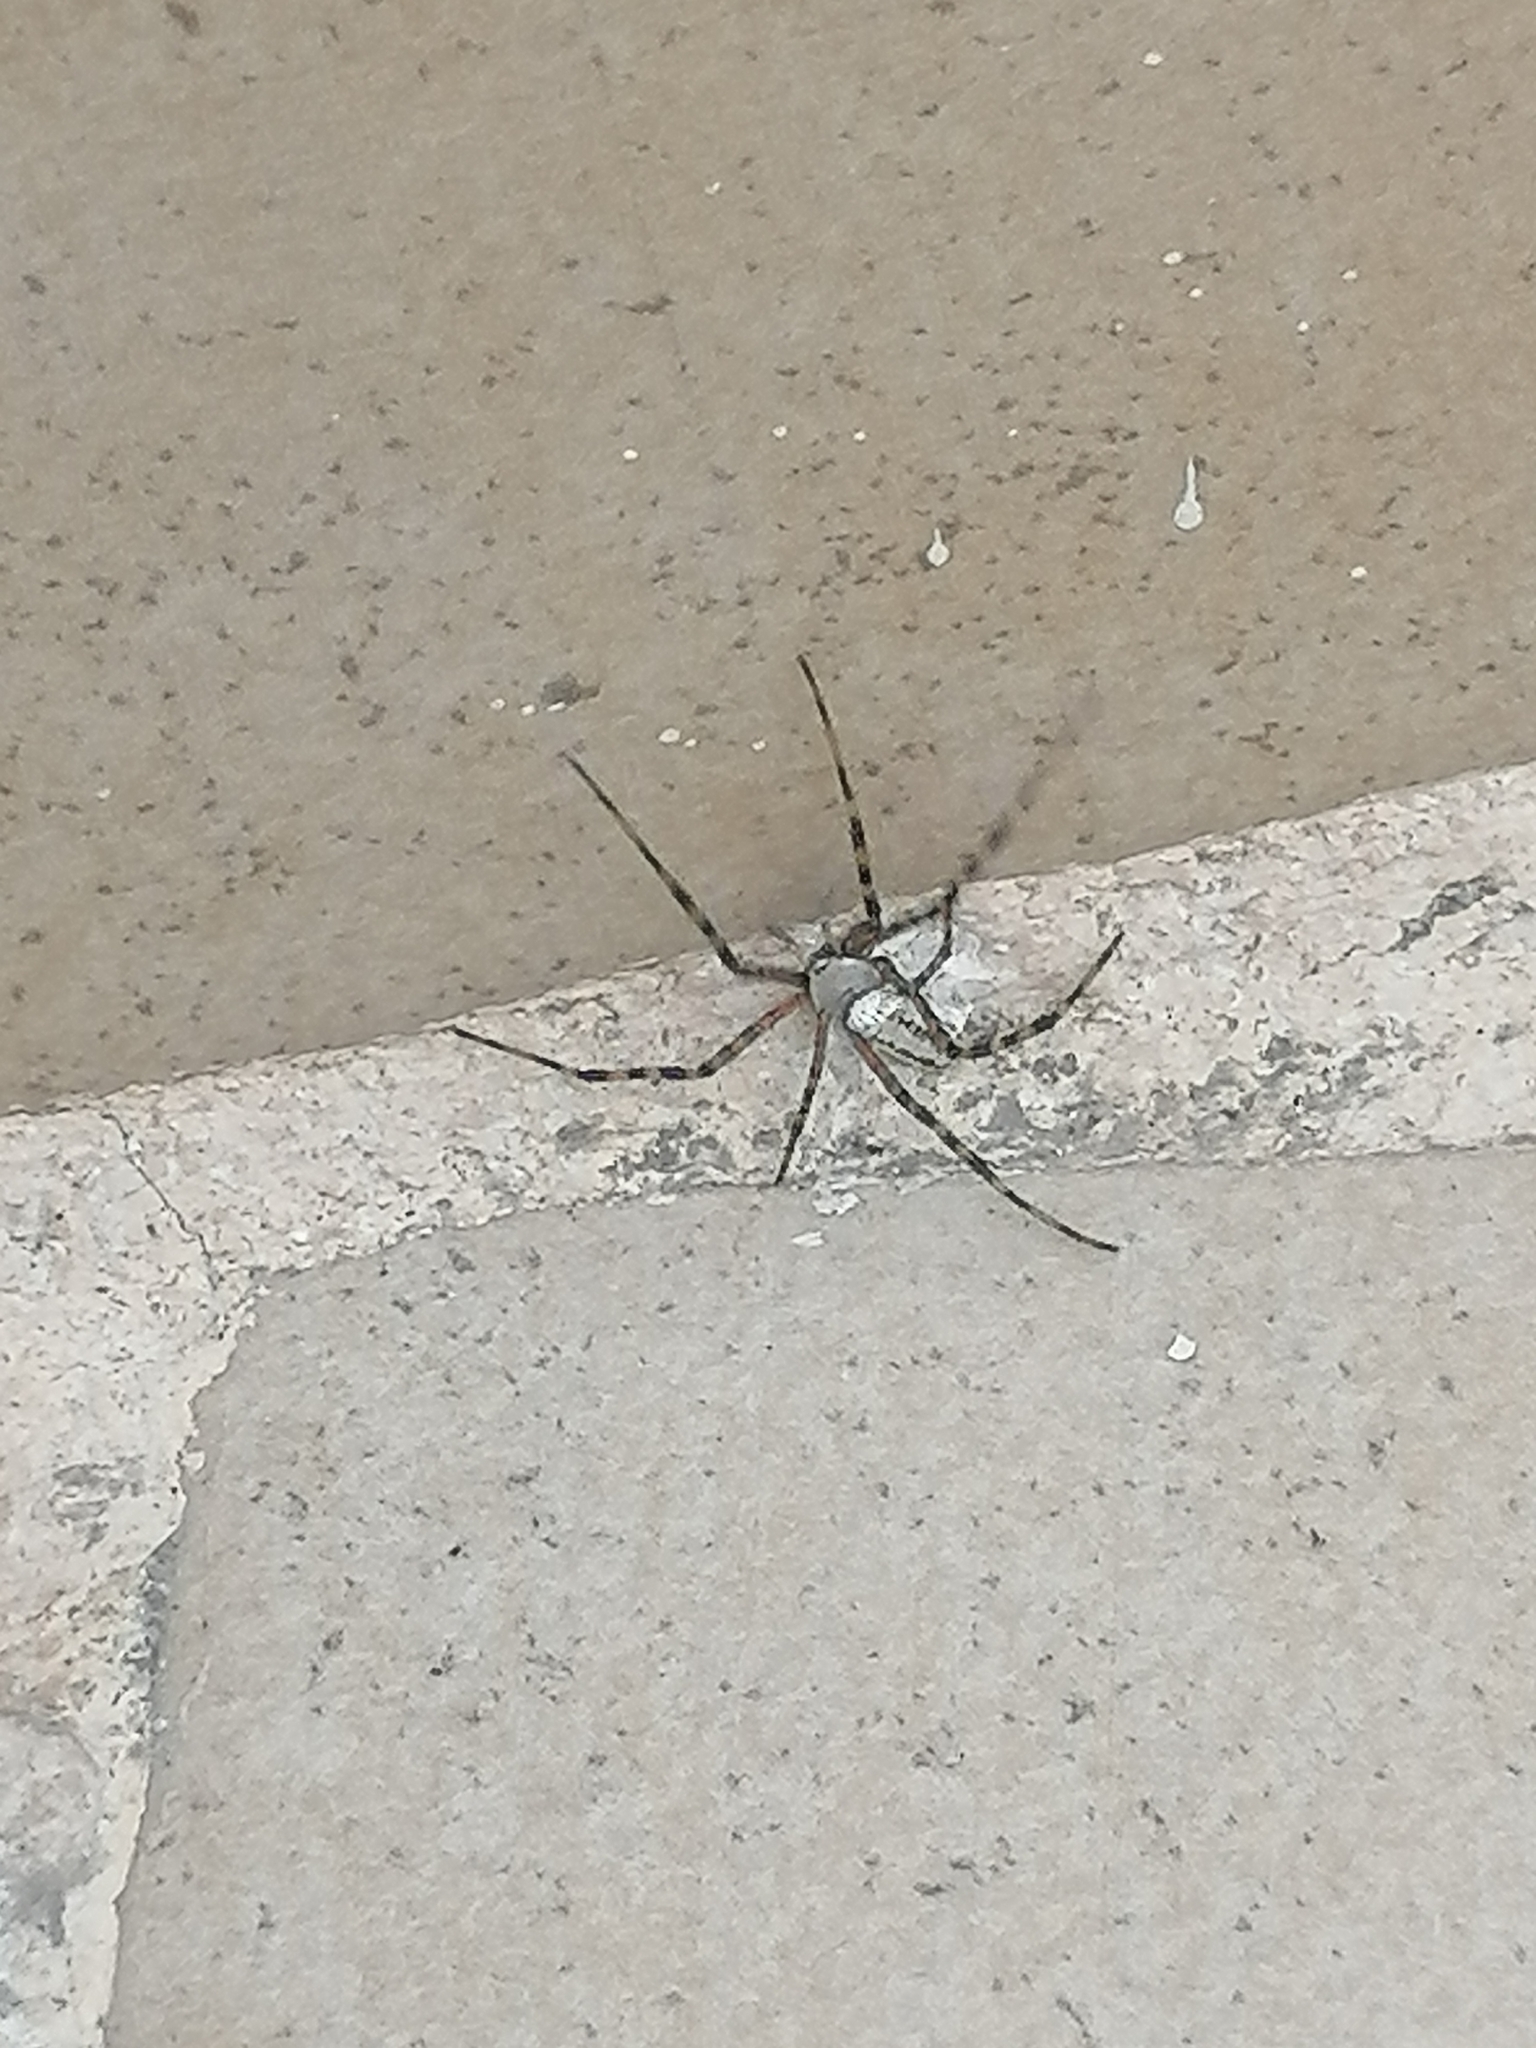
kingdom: Animalia
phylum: Arthropoda
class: Arachnida
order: Araneae
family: Araneidae
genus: Argiope
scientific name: Argiope trifasciata
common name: Banded garden spider
